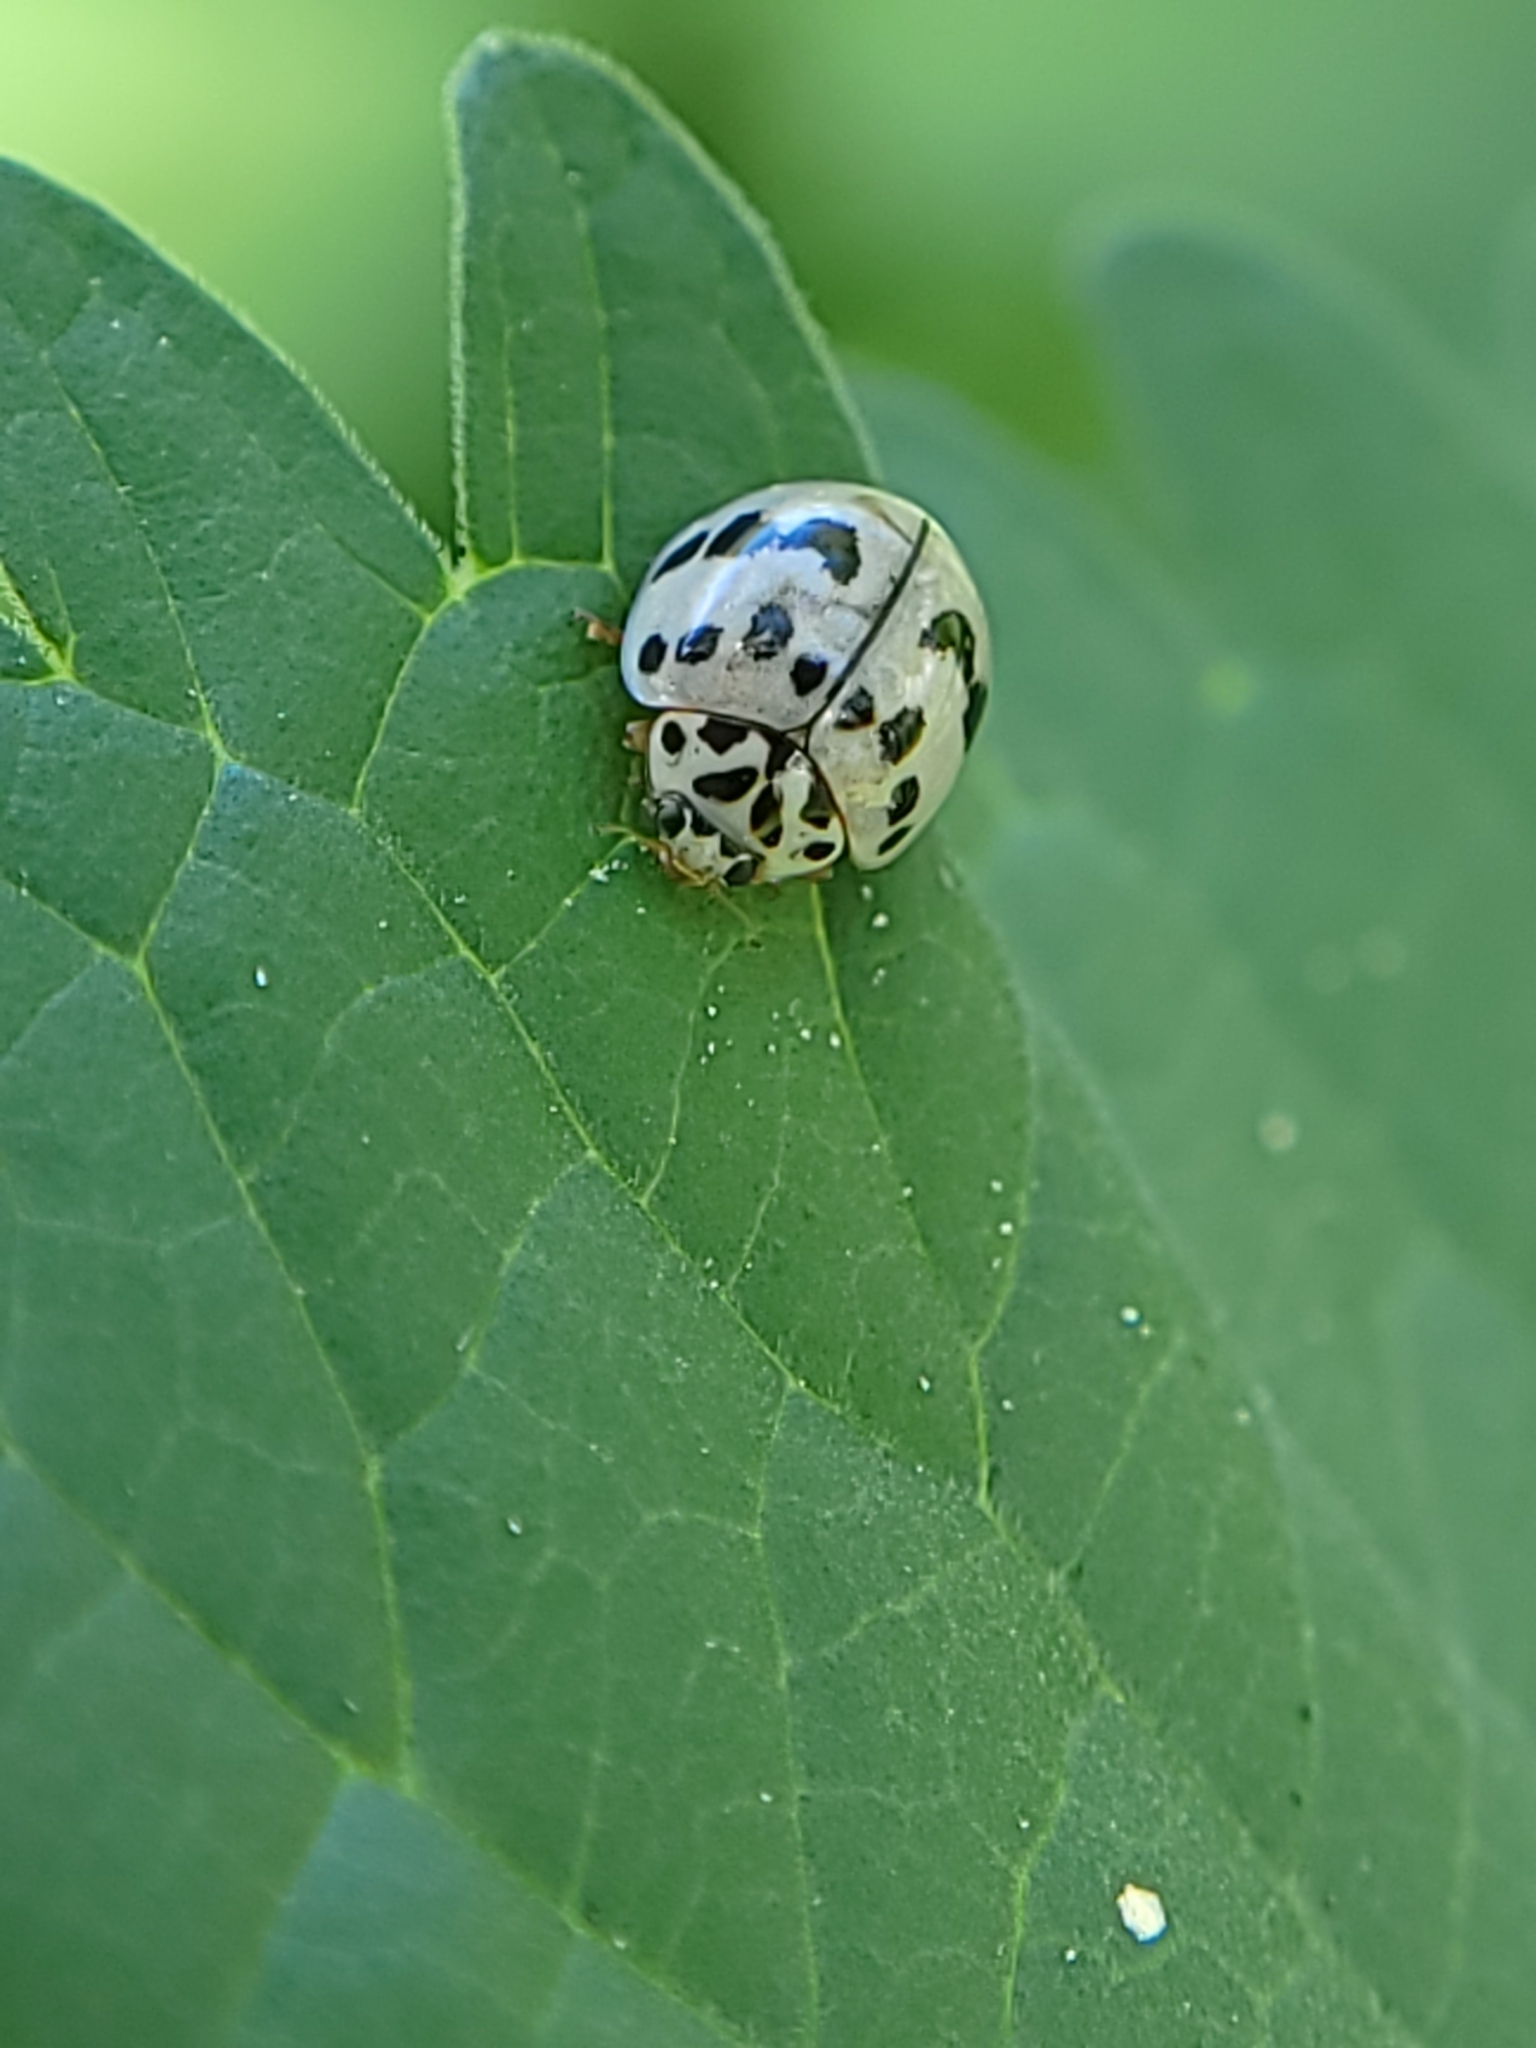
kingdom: Animalia
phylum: Arthropoda
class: Insecta
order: Coleoptera
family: Coccinellidae
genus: Olla
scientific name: Olla v-nigrum
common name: Ashy gray lady beetle
